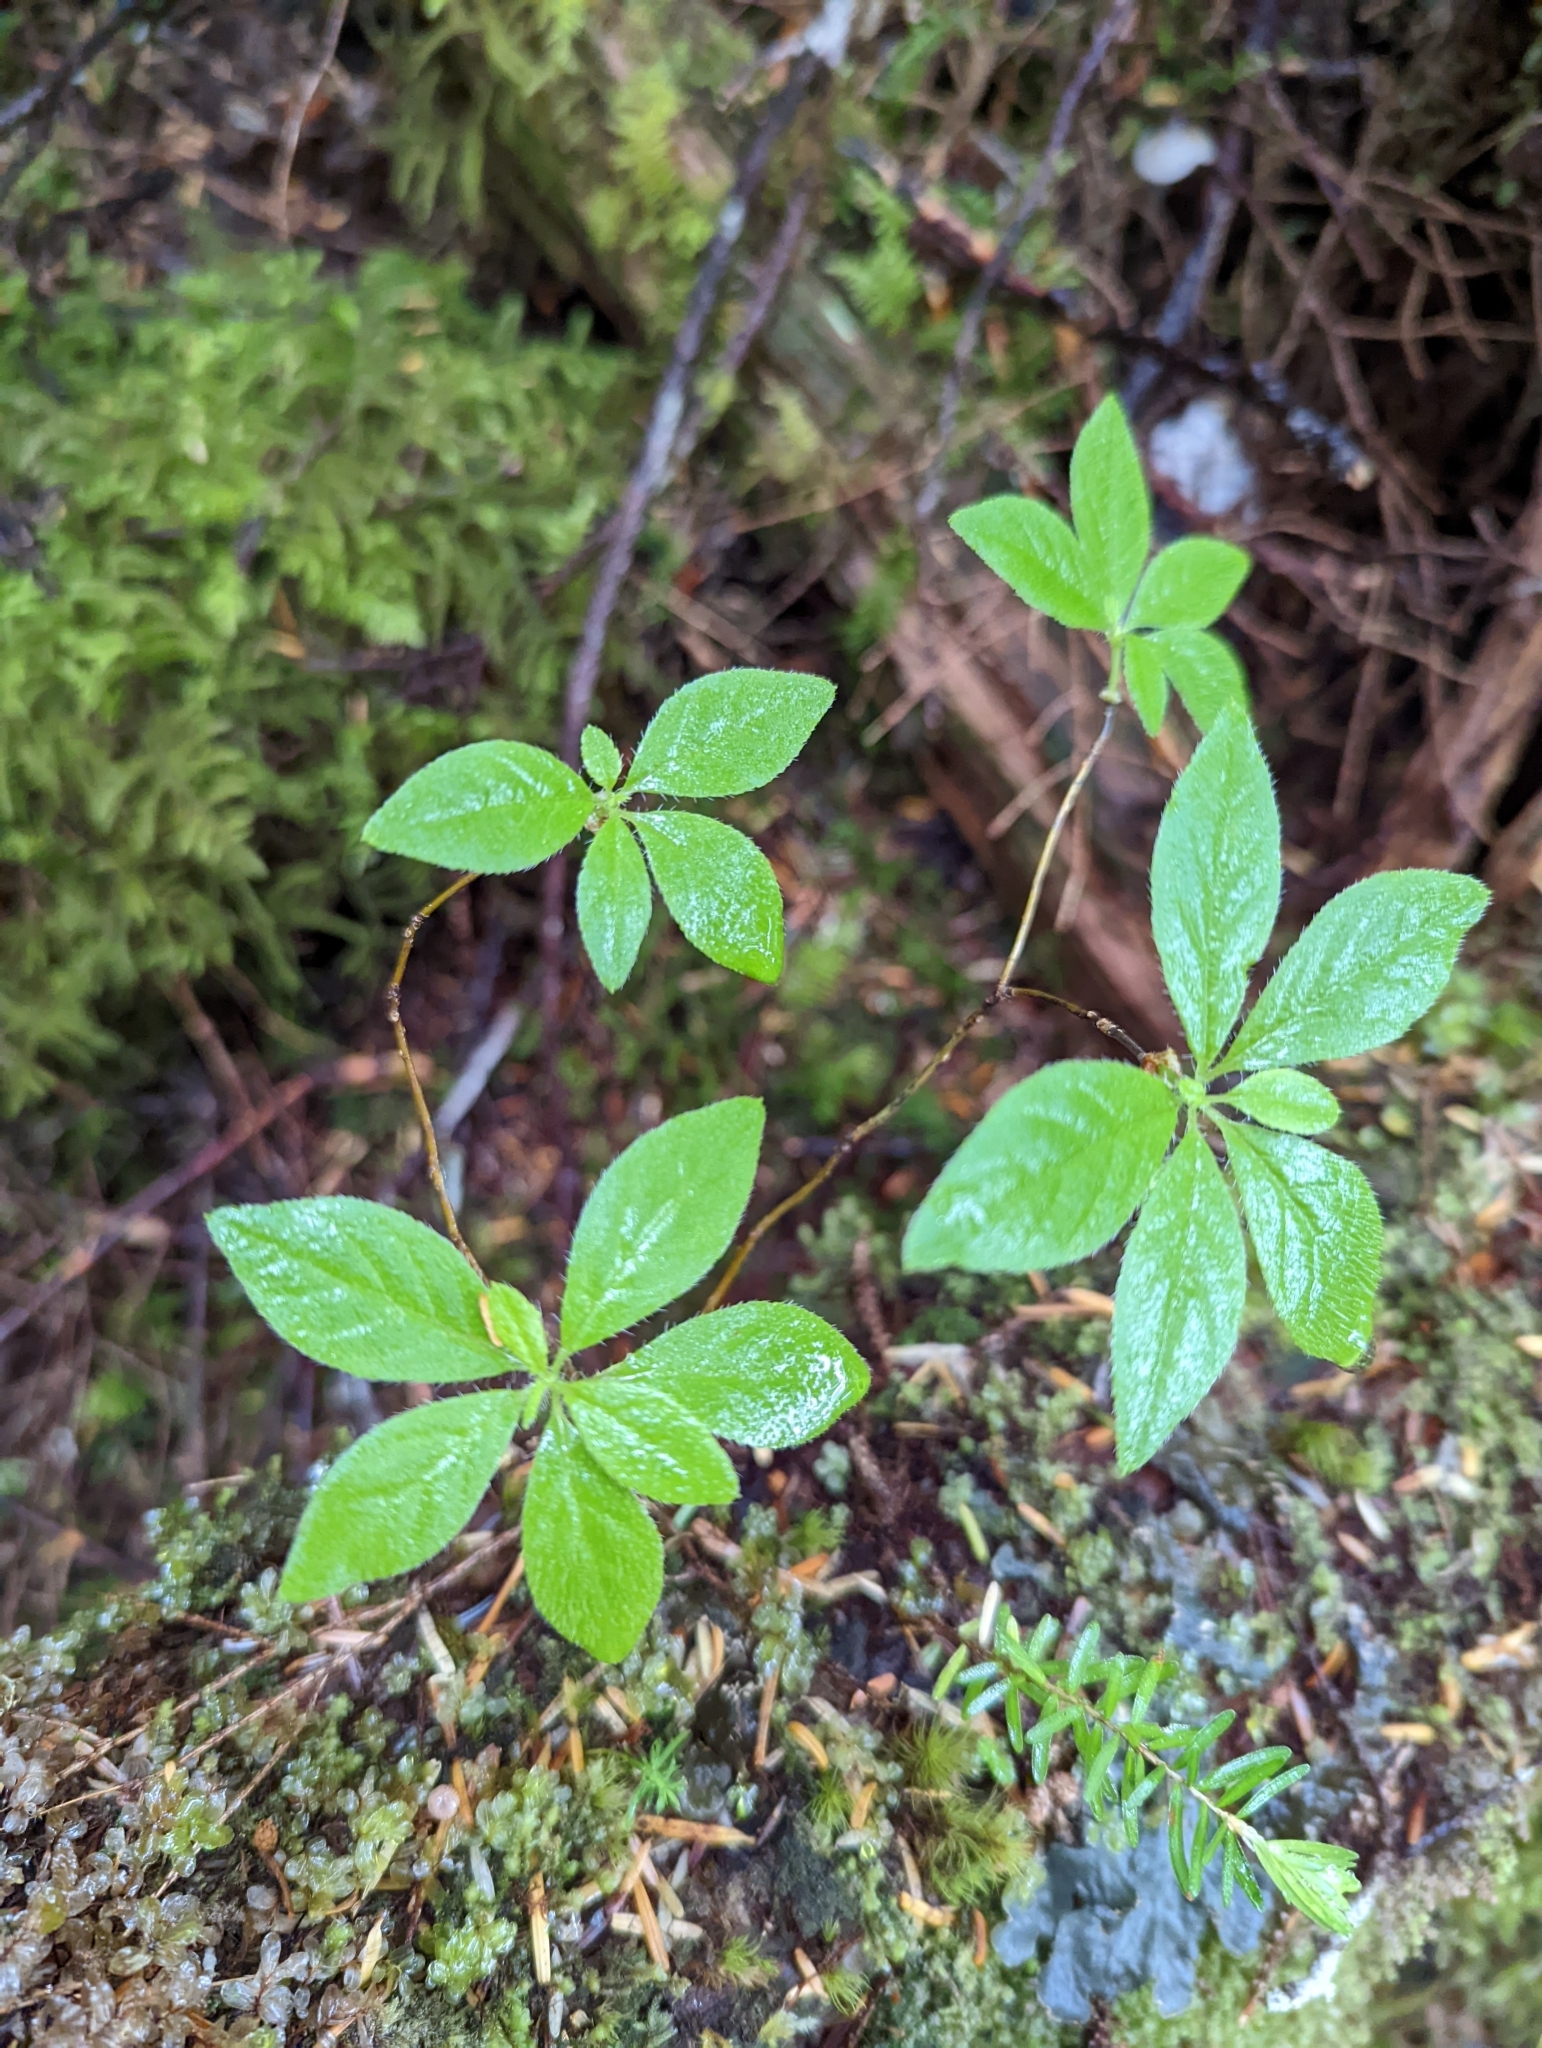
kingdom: Plantae
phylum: Tracheophyta
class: Magnoliopsida
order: Ericales
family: Ericaceae
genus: Rhododendron
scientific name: Rhododendron menziesii
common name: Pacific menziesia
